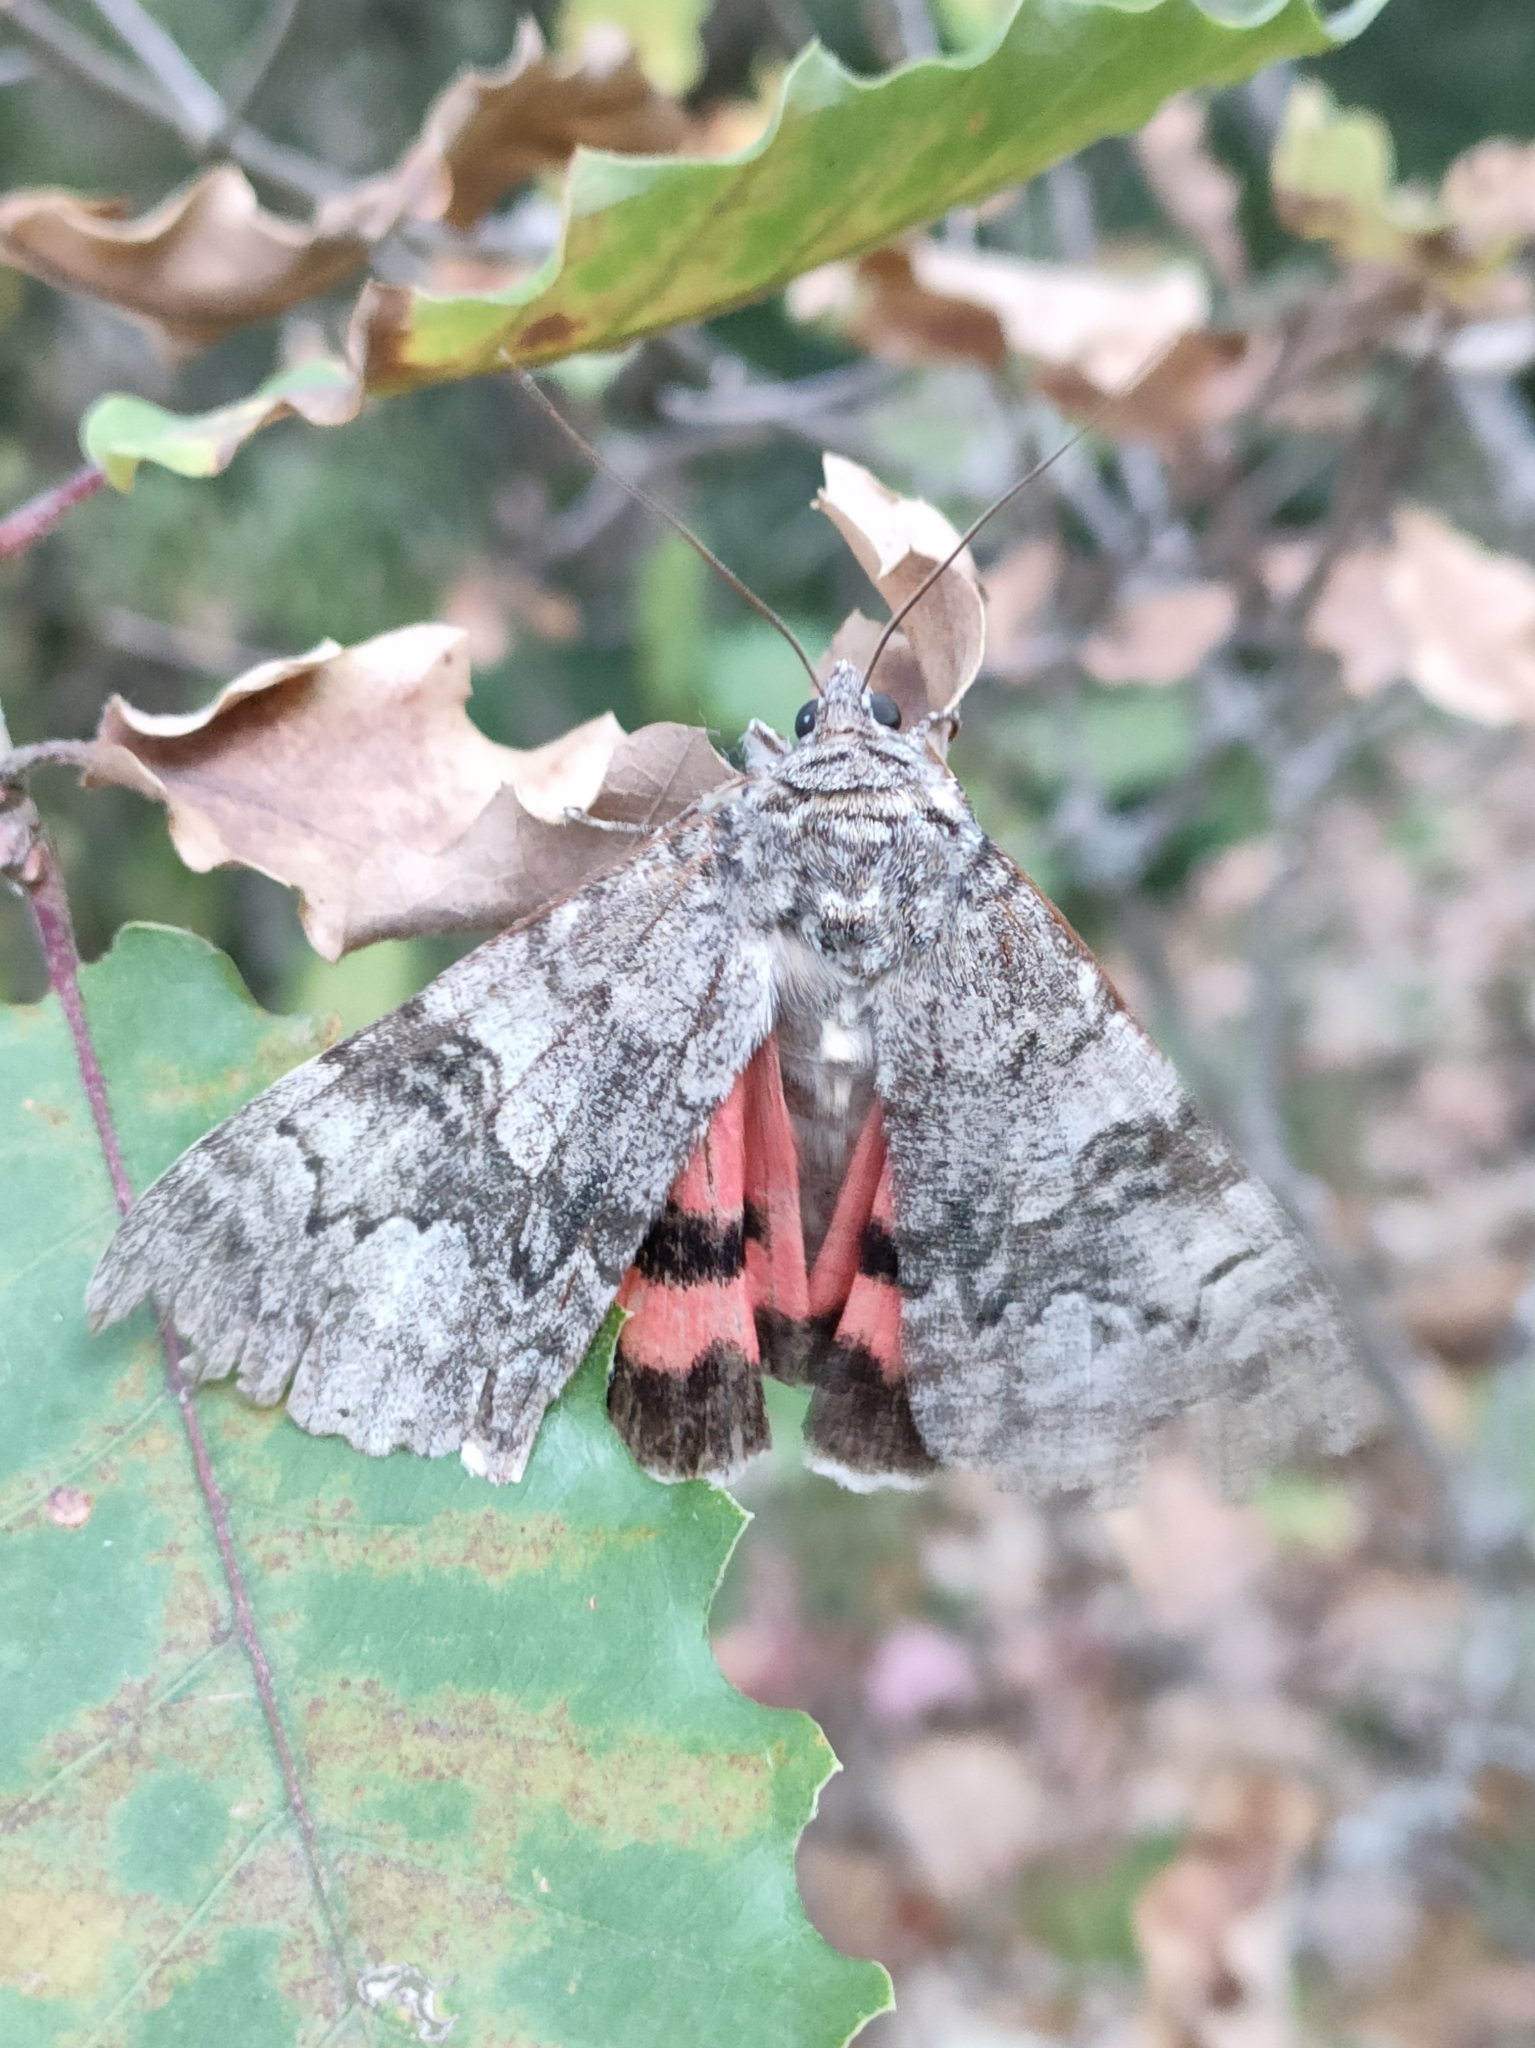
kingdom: Animalia
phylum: Arthropoda
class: Insecta
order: Lepidoptera
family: Erebidae
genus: Catocala
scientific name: Catocala nupta
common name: Red underwing
